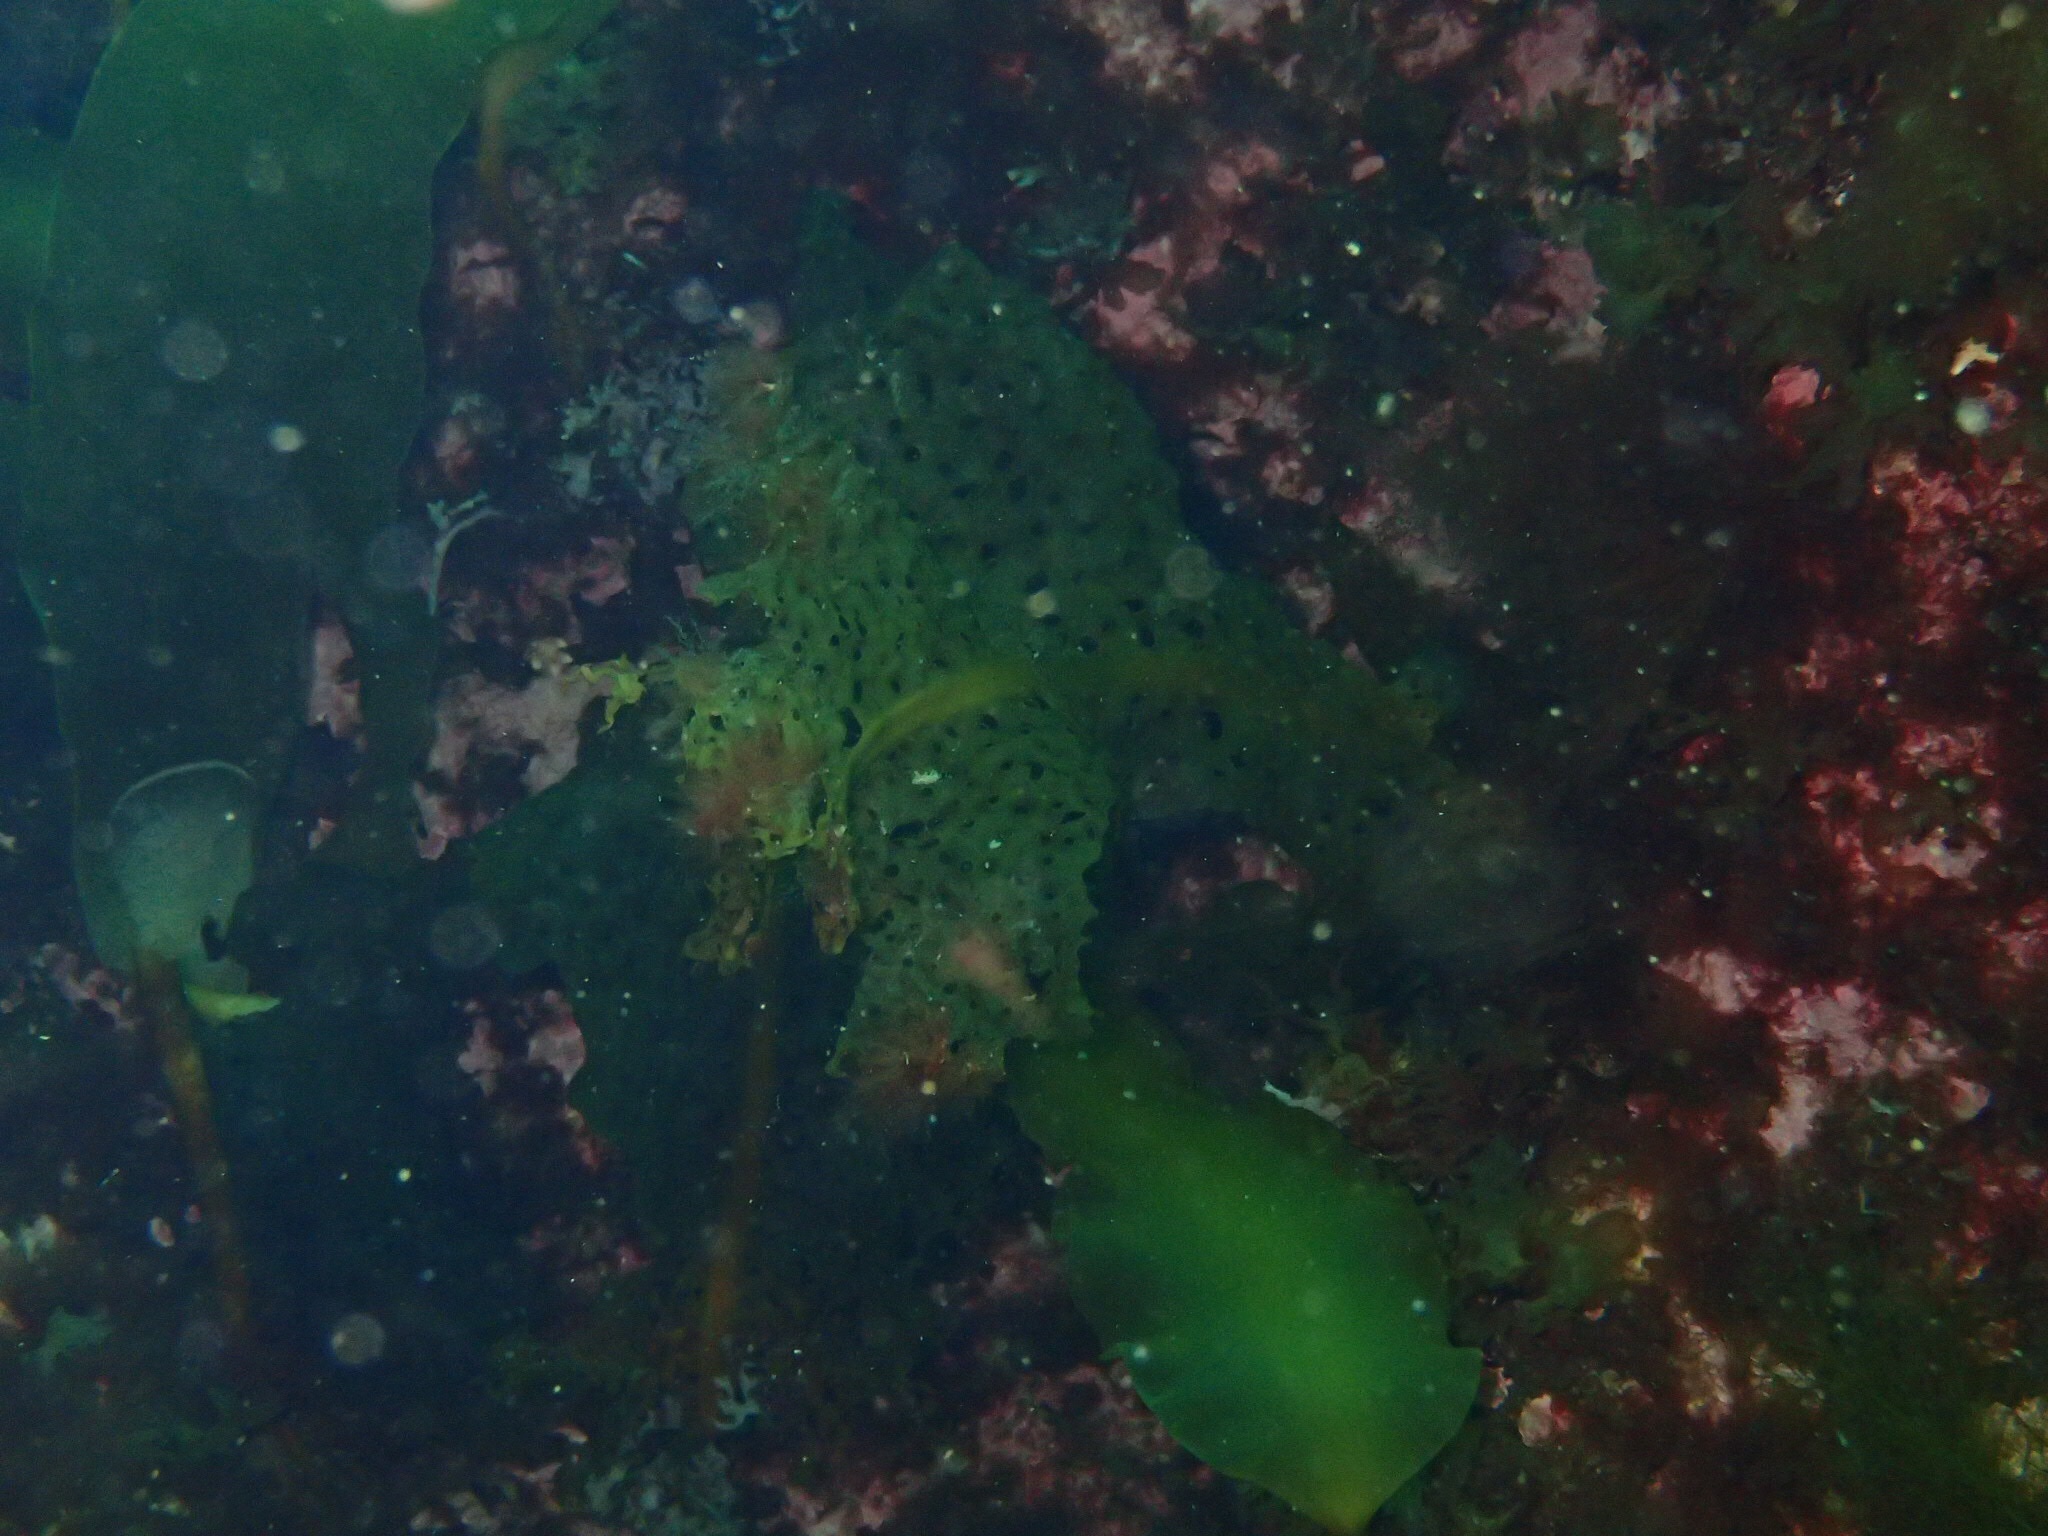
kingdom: Chromista
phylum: Ochrophyta
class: Phaeophyceae
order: Laminariales
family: Costariaceae
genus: Agarum
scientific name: Agarum clathratum
